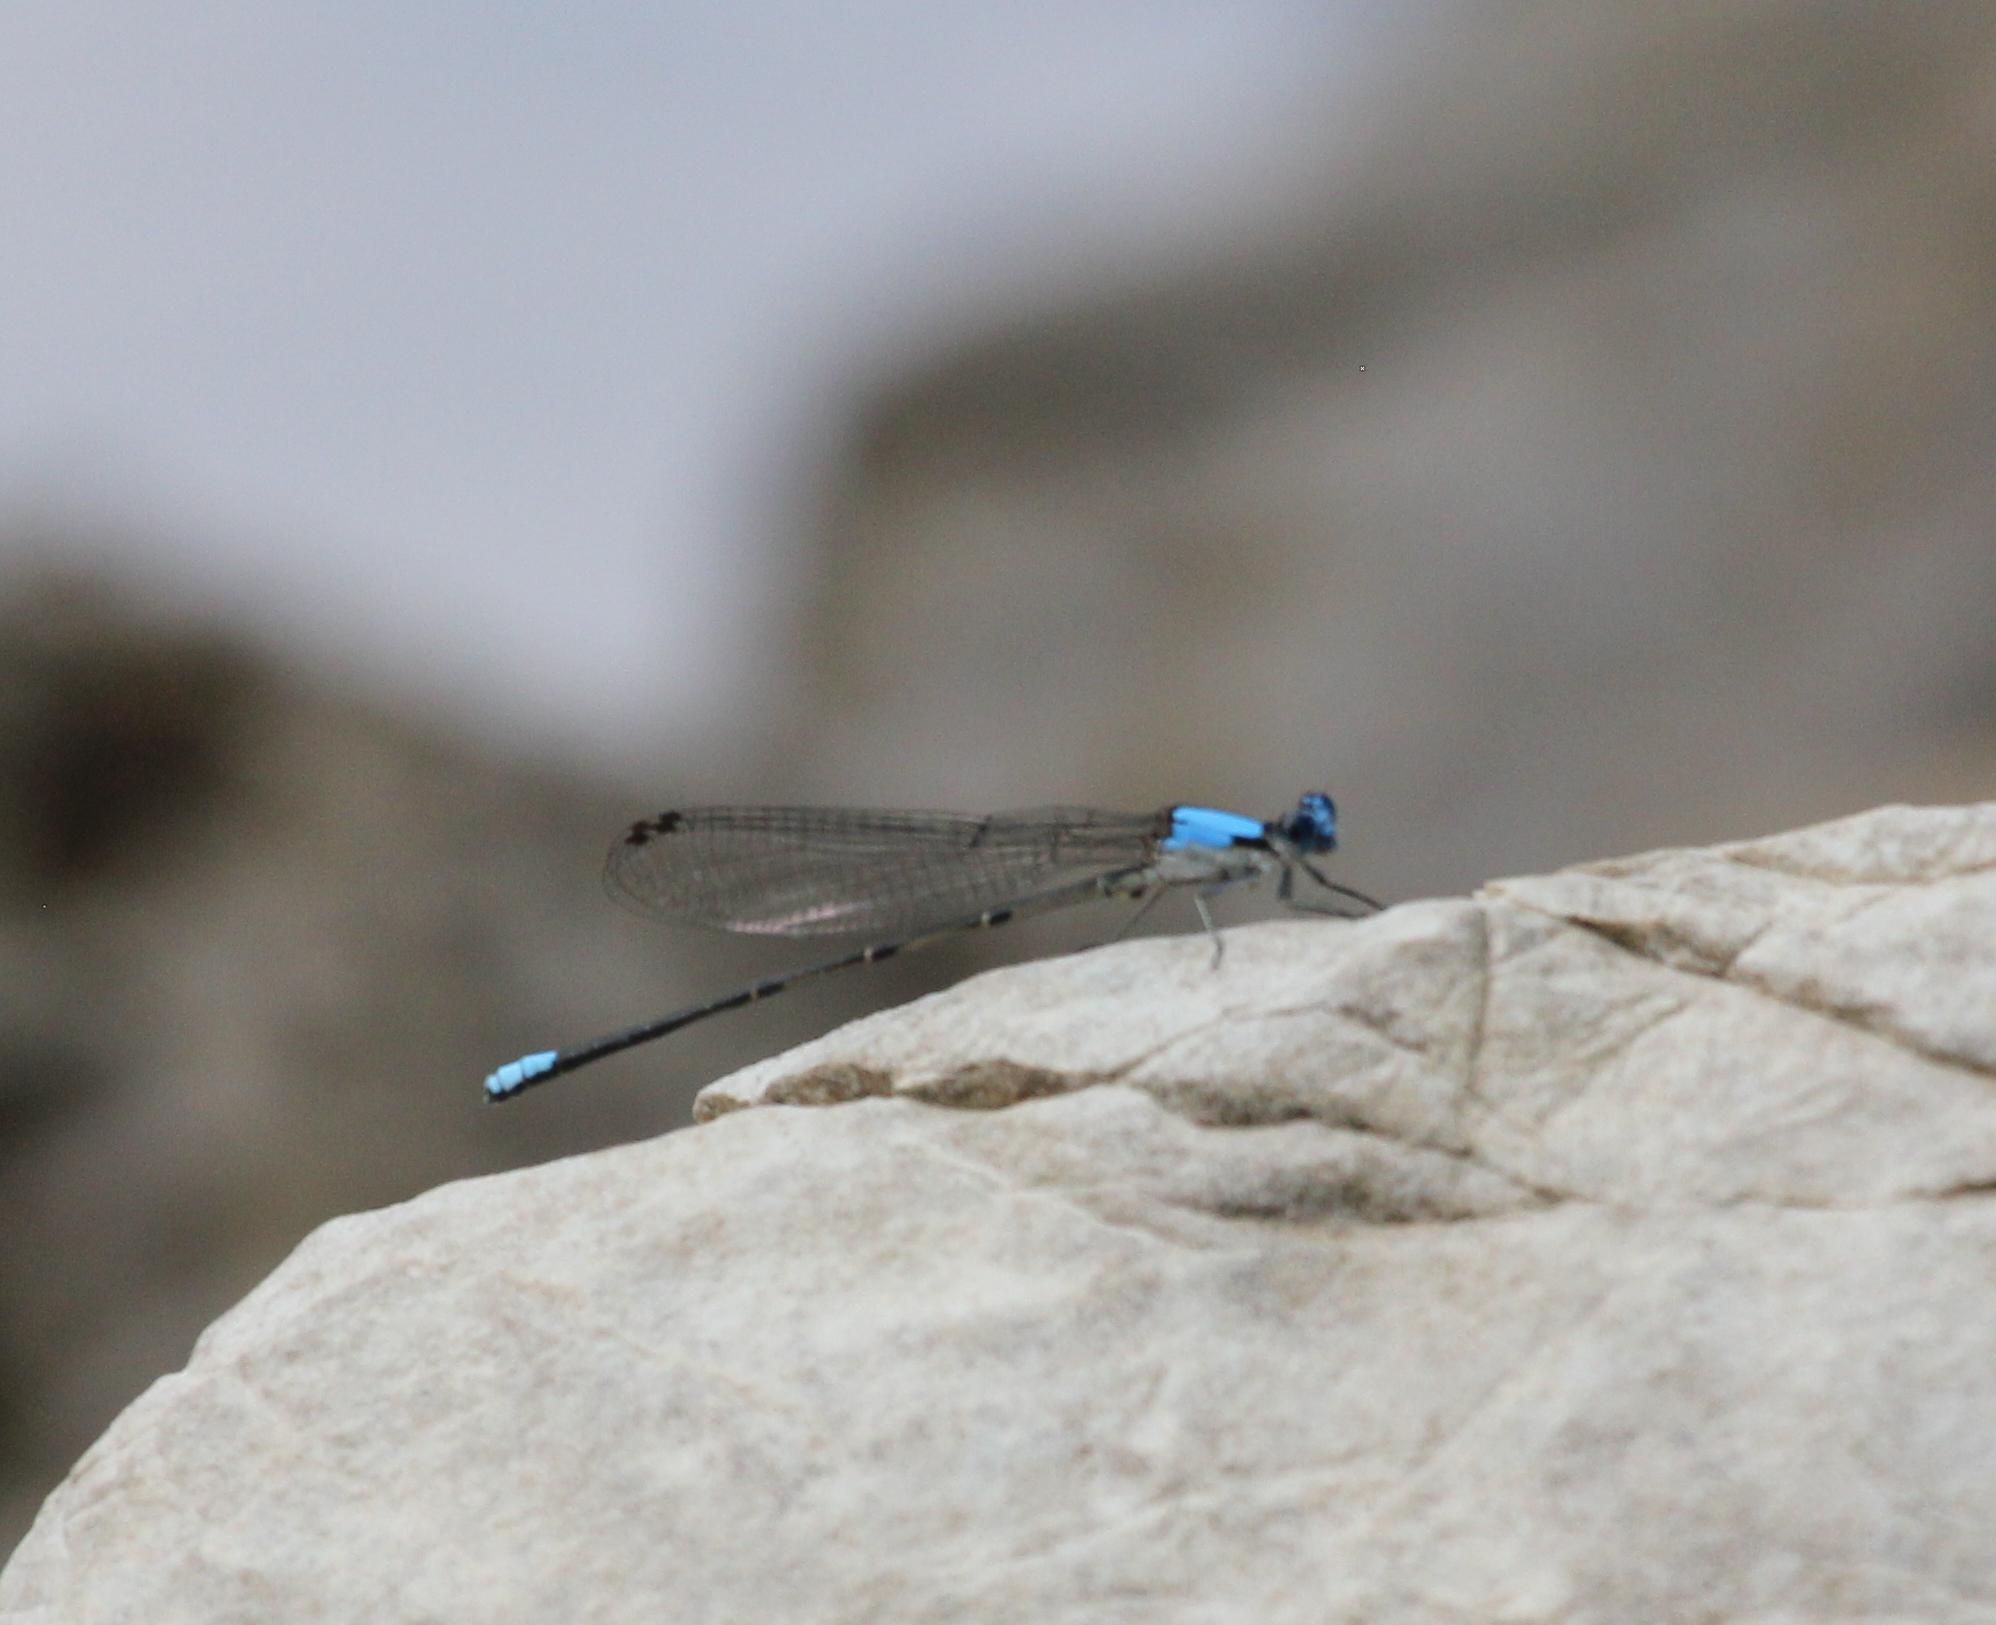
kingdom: Animalia
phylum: Arthropoda
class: Insecta
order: Odonata
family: Coenagrionidae
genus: Argia
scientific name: Argia apicalis
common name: Blue-fronted dancer
